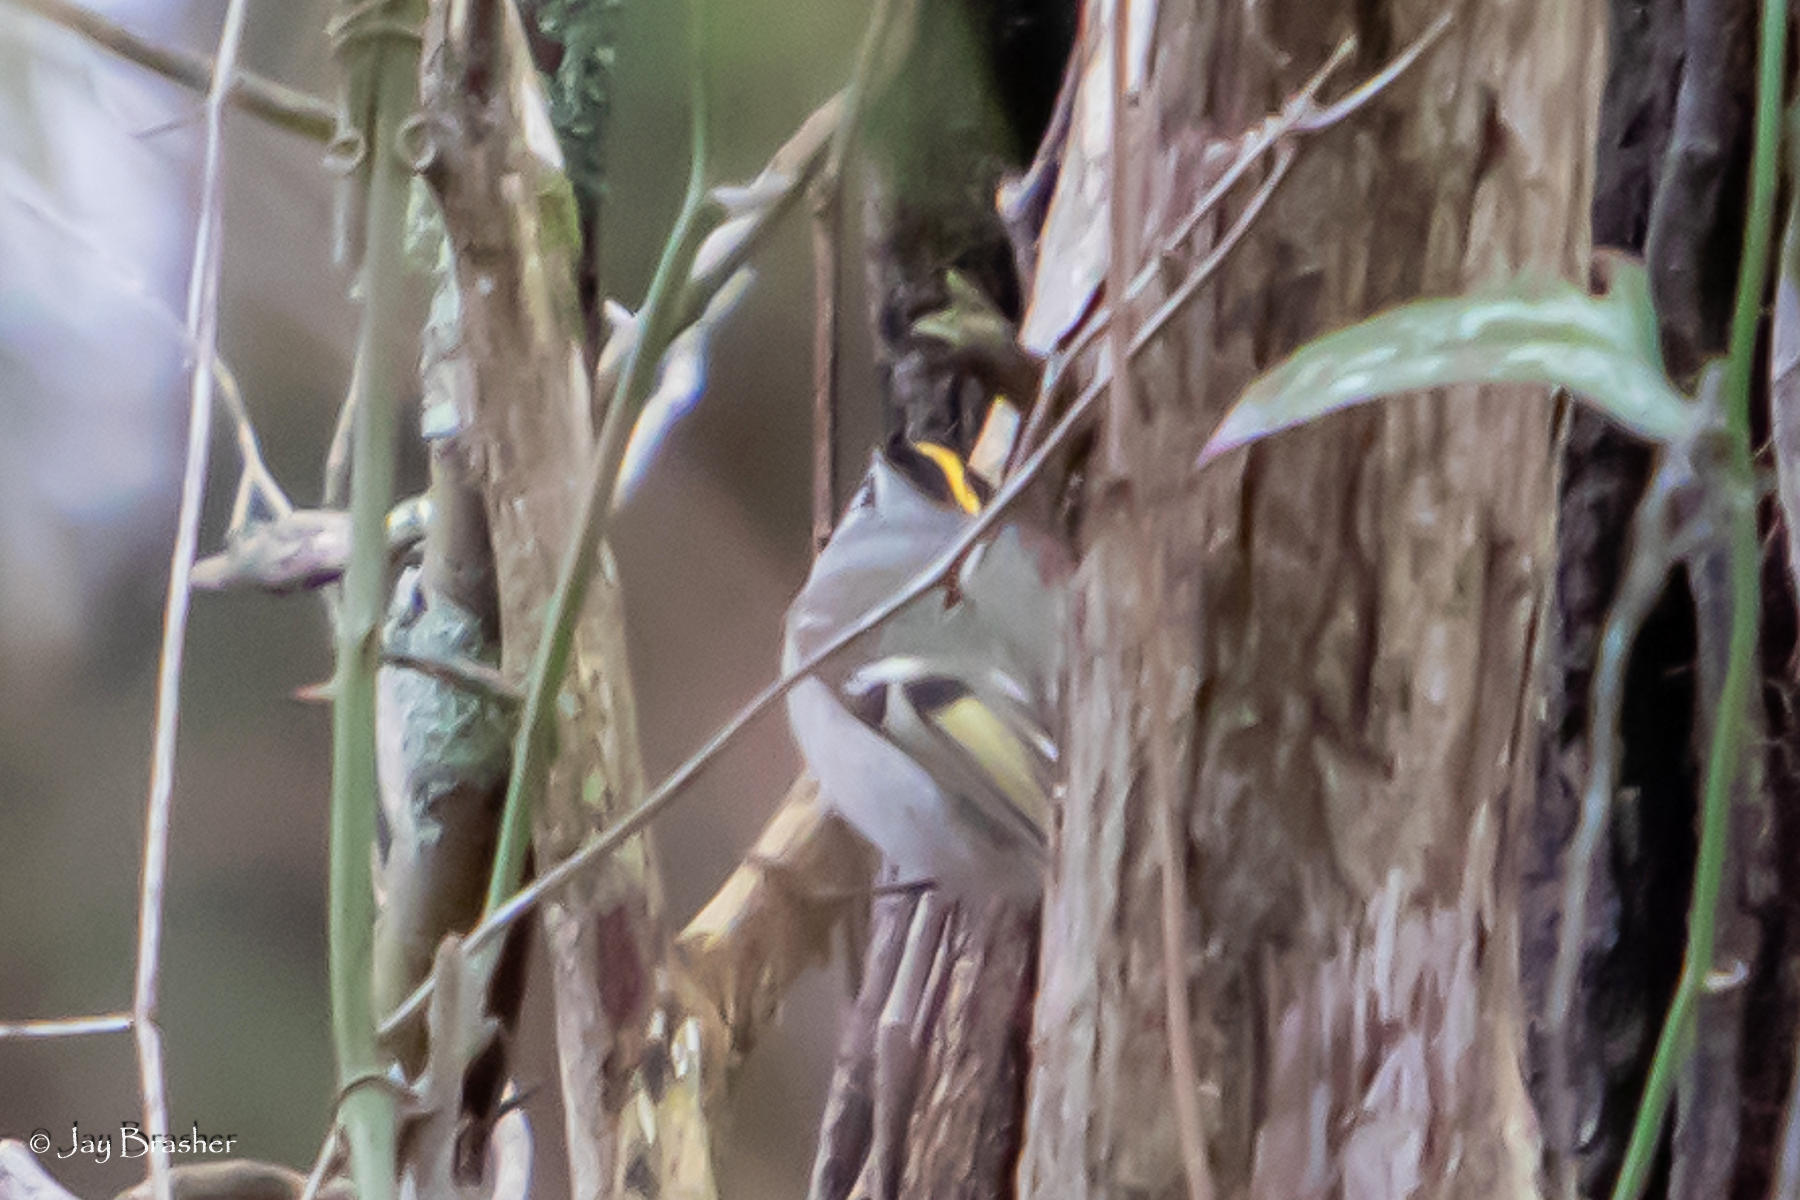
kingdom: Animalia
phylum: Chordata
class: Aves
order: Passeriformes
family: Regulidae
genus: Regulus
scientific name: Regulus satrapa
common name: Golden-crowned kinglet
